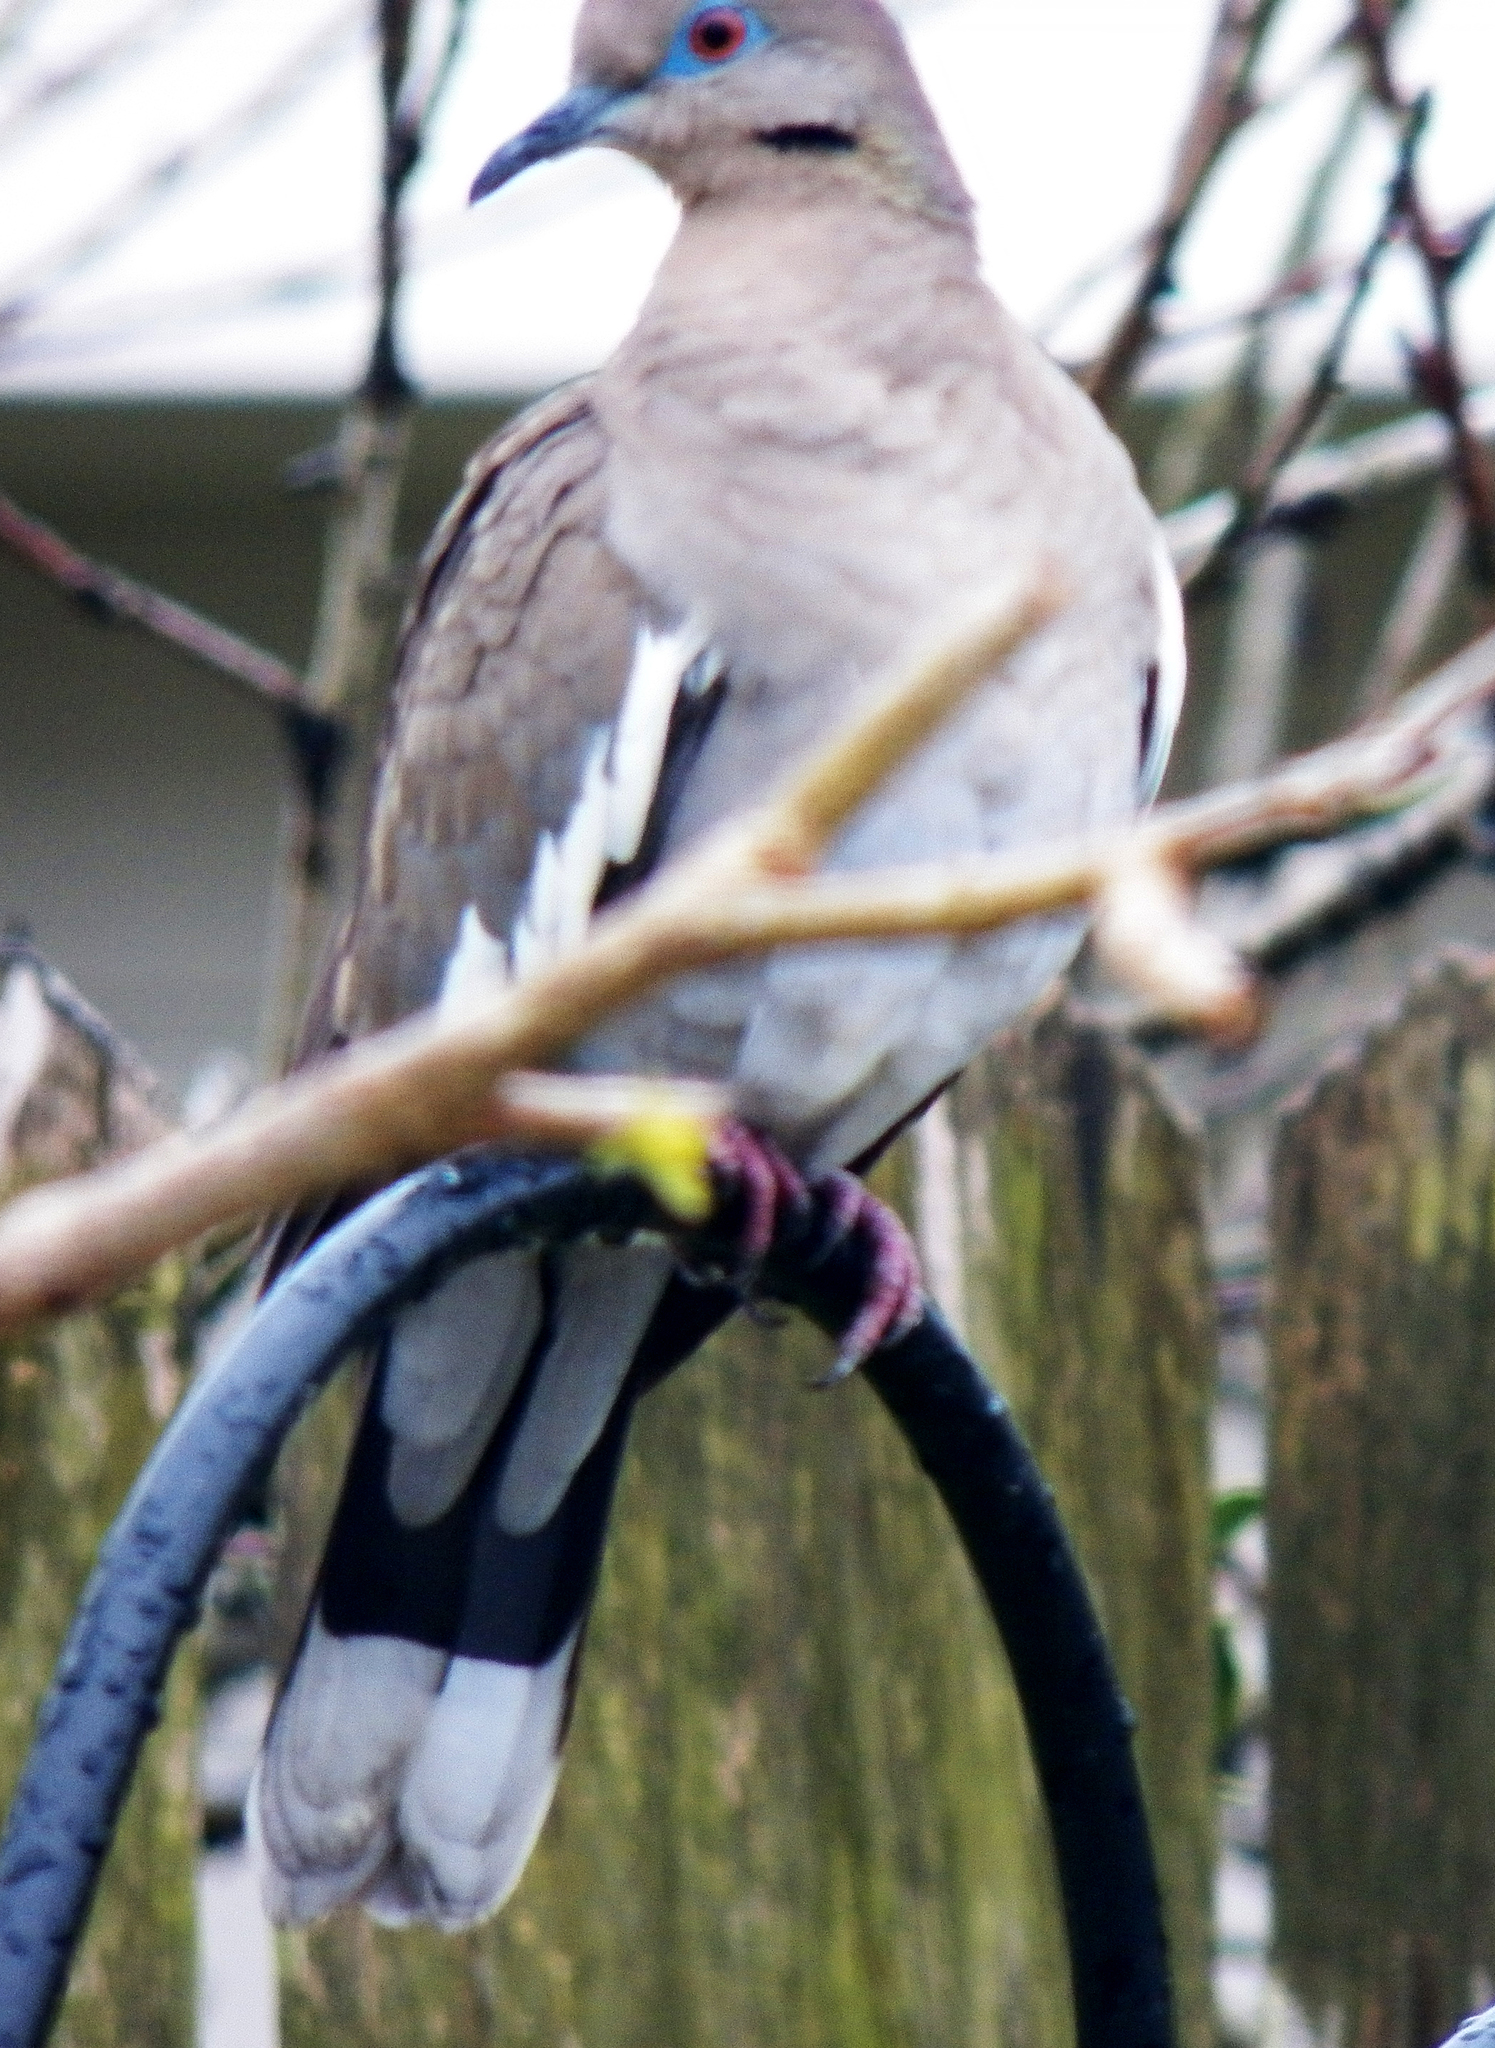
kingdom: Animalia
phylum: Chordata
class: Aves
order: Columbiformes
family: Columbidae
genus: Zenaida
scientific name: Zenaida asiatica
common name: White-winged dove
